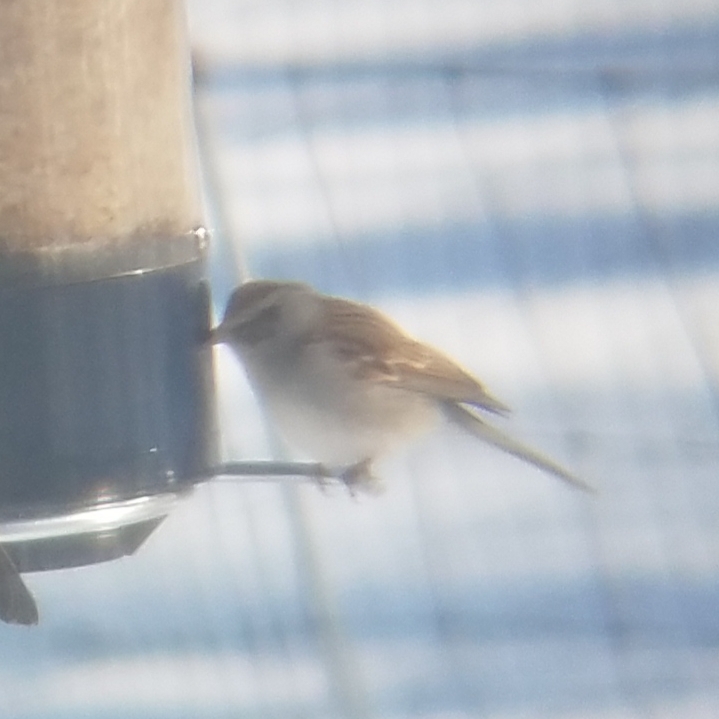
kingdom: Animalia
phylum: Chordata
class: Aves
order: Passeriformes
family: Passerellidae
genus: Spizella
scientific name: Spizella passerina
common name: Chipping sparrow
